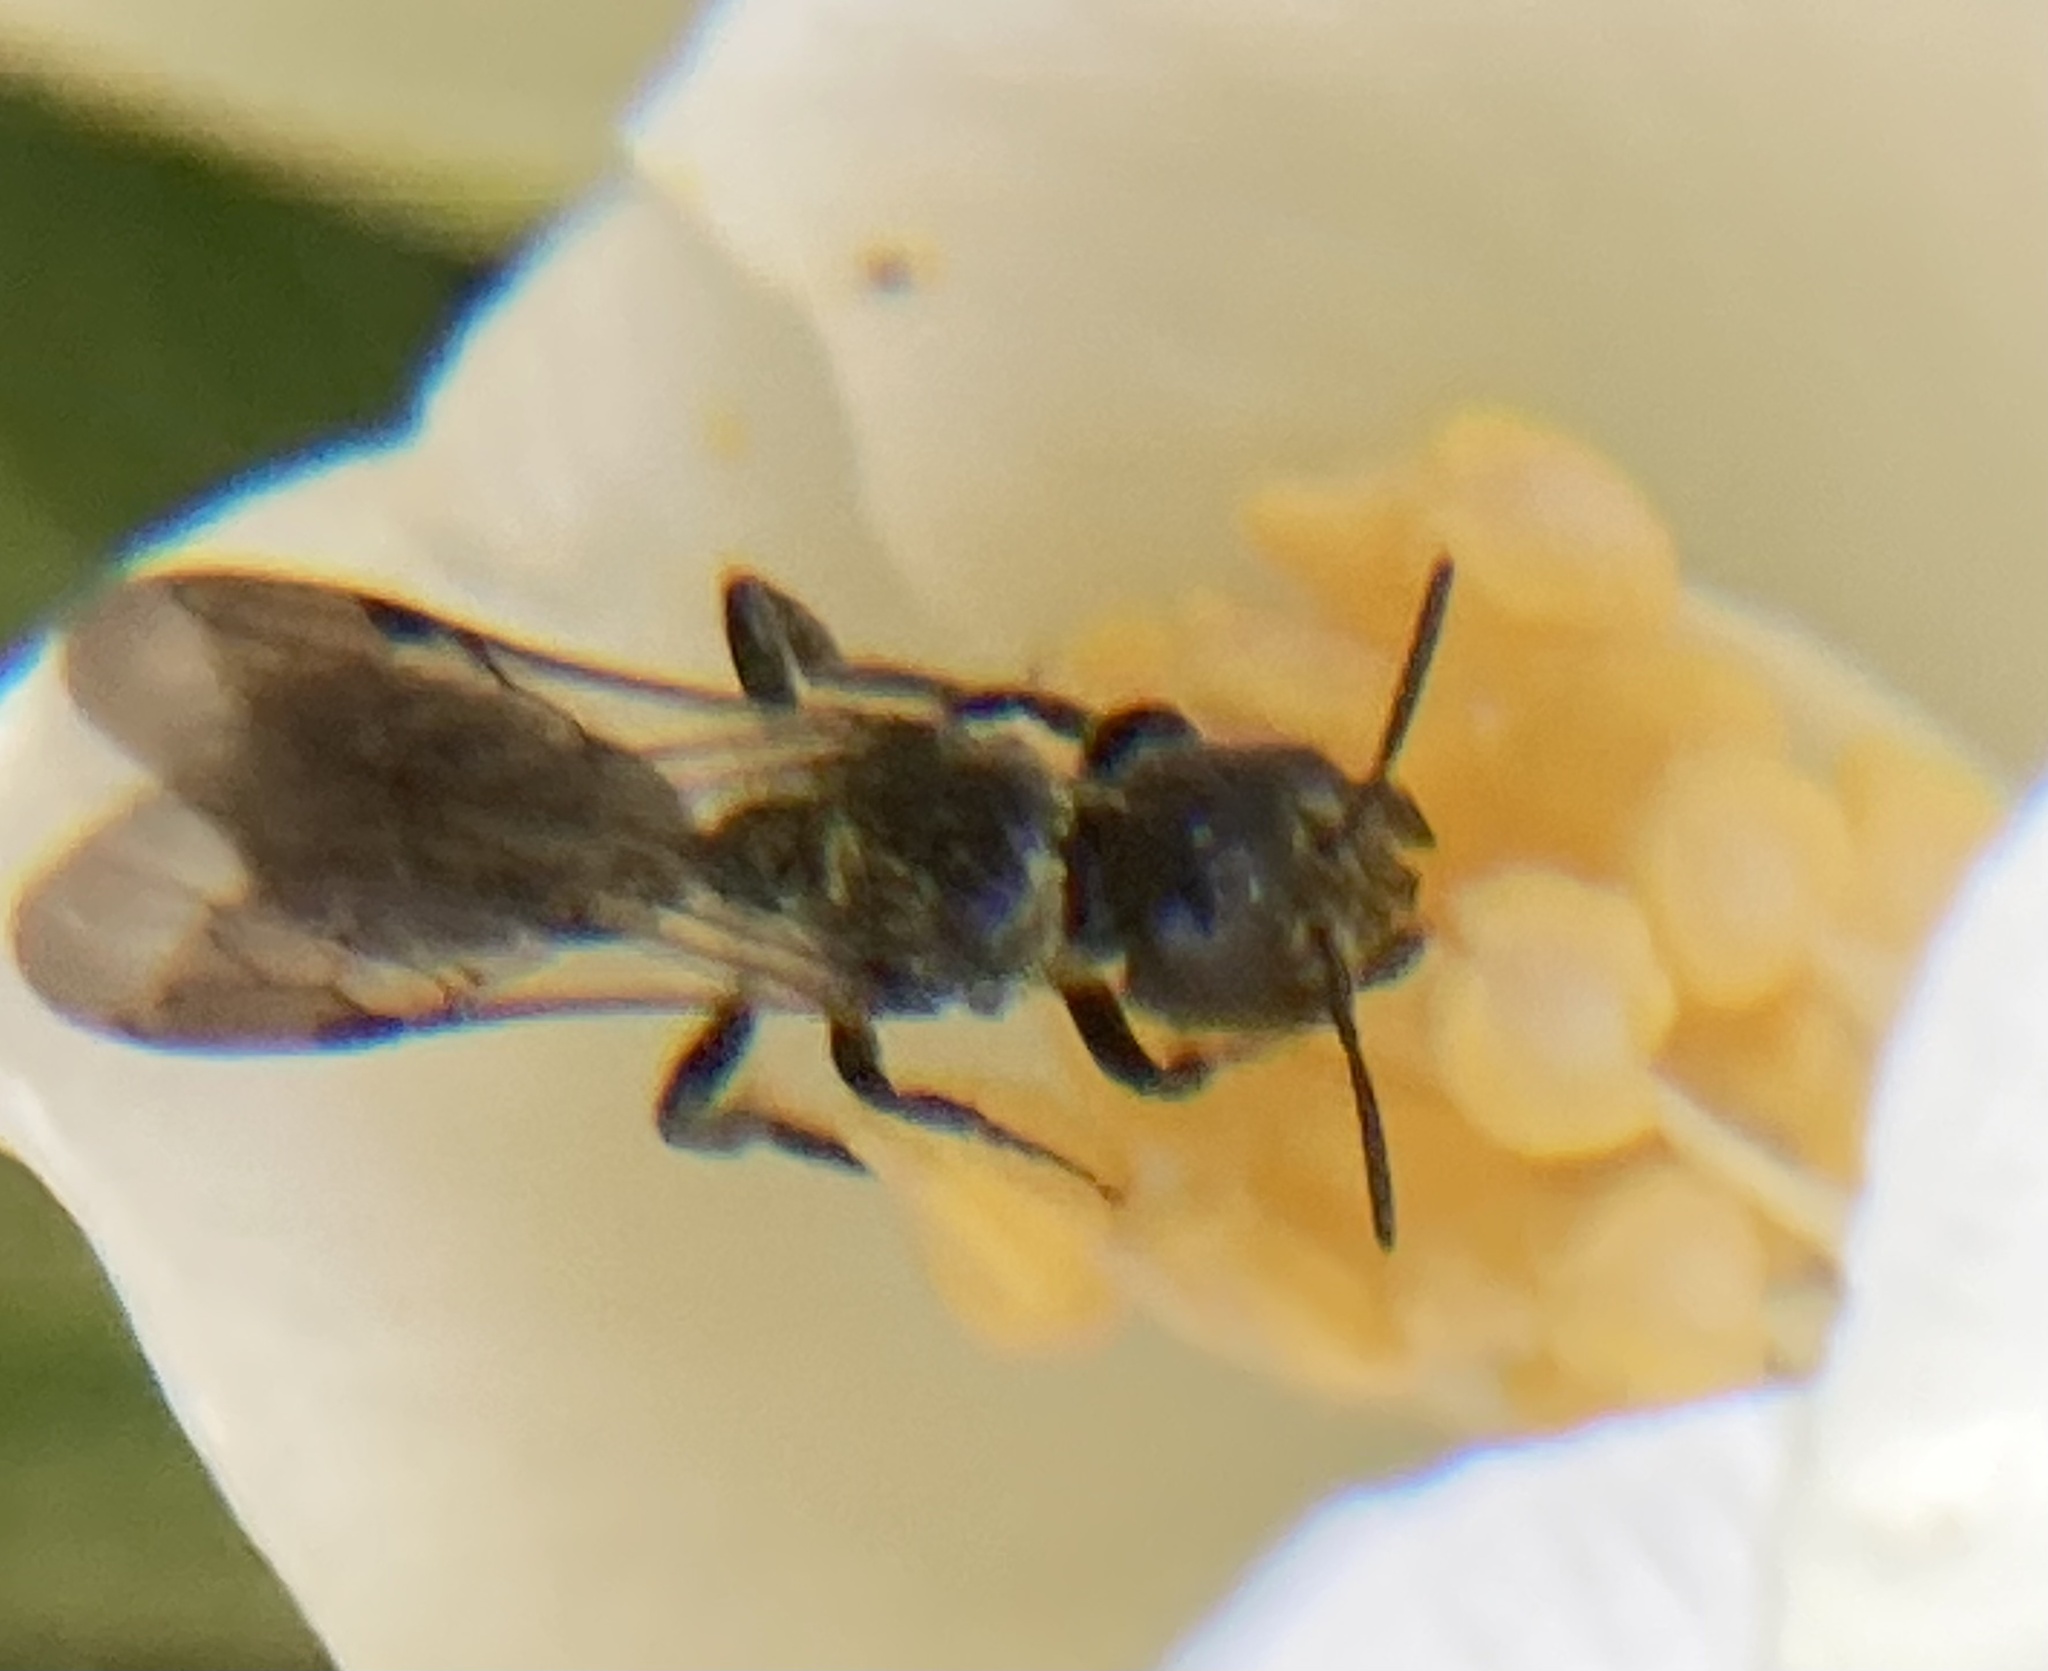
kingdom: Animalia
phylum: Arthropoda
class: Insecta
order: Hymenoptera
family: Megachilidae
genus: Chelostoma
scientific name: Chelostoma philadelphi
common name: Mock-orange scissor bee
